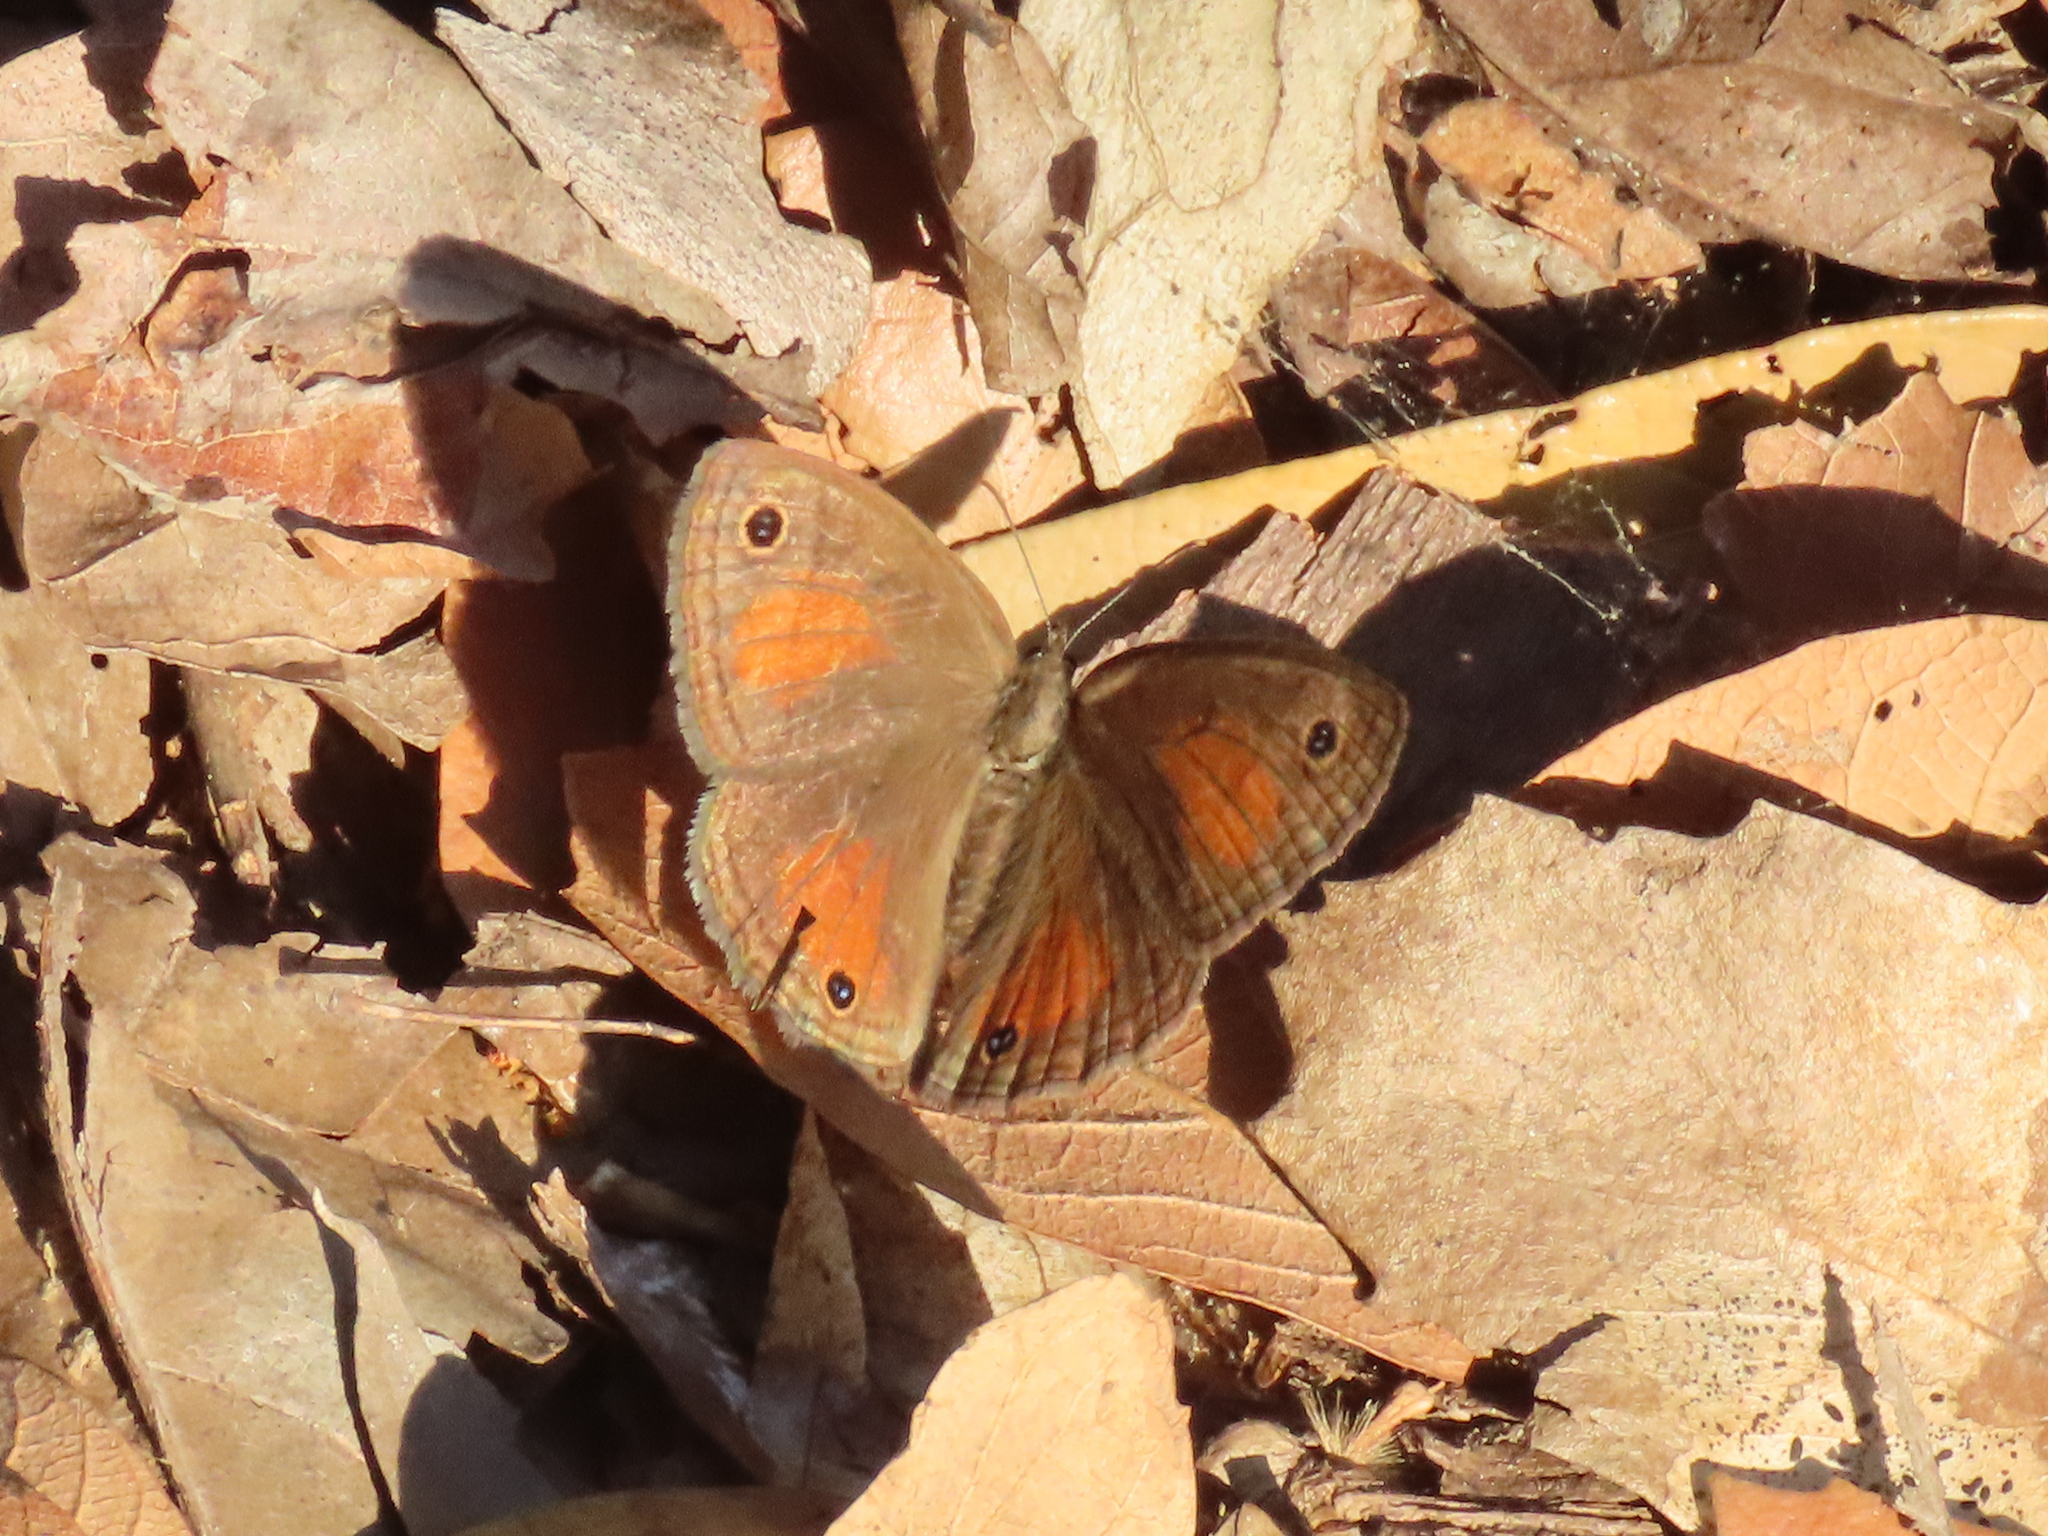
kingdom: Animalia
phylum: Arthropoda
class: Insecta
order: Lepidoptera
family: Nymphalidae
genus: Euptychia
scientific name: Euptychia
